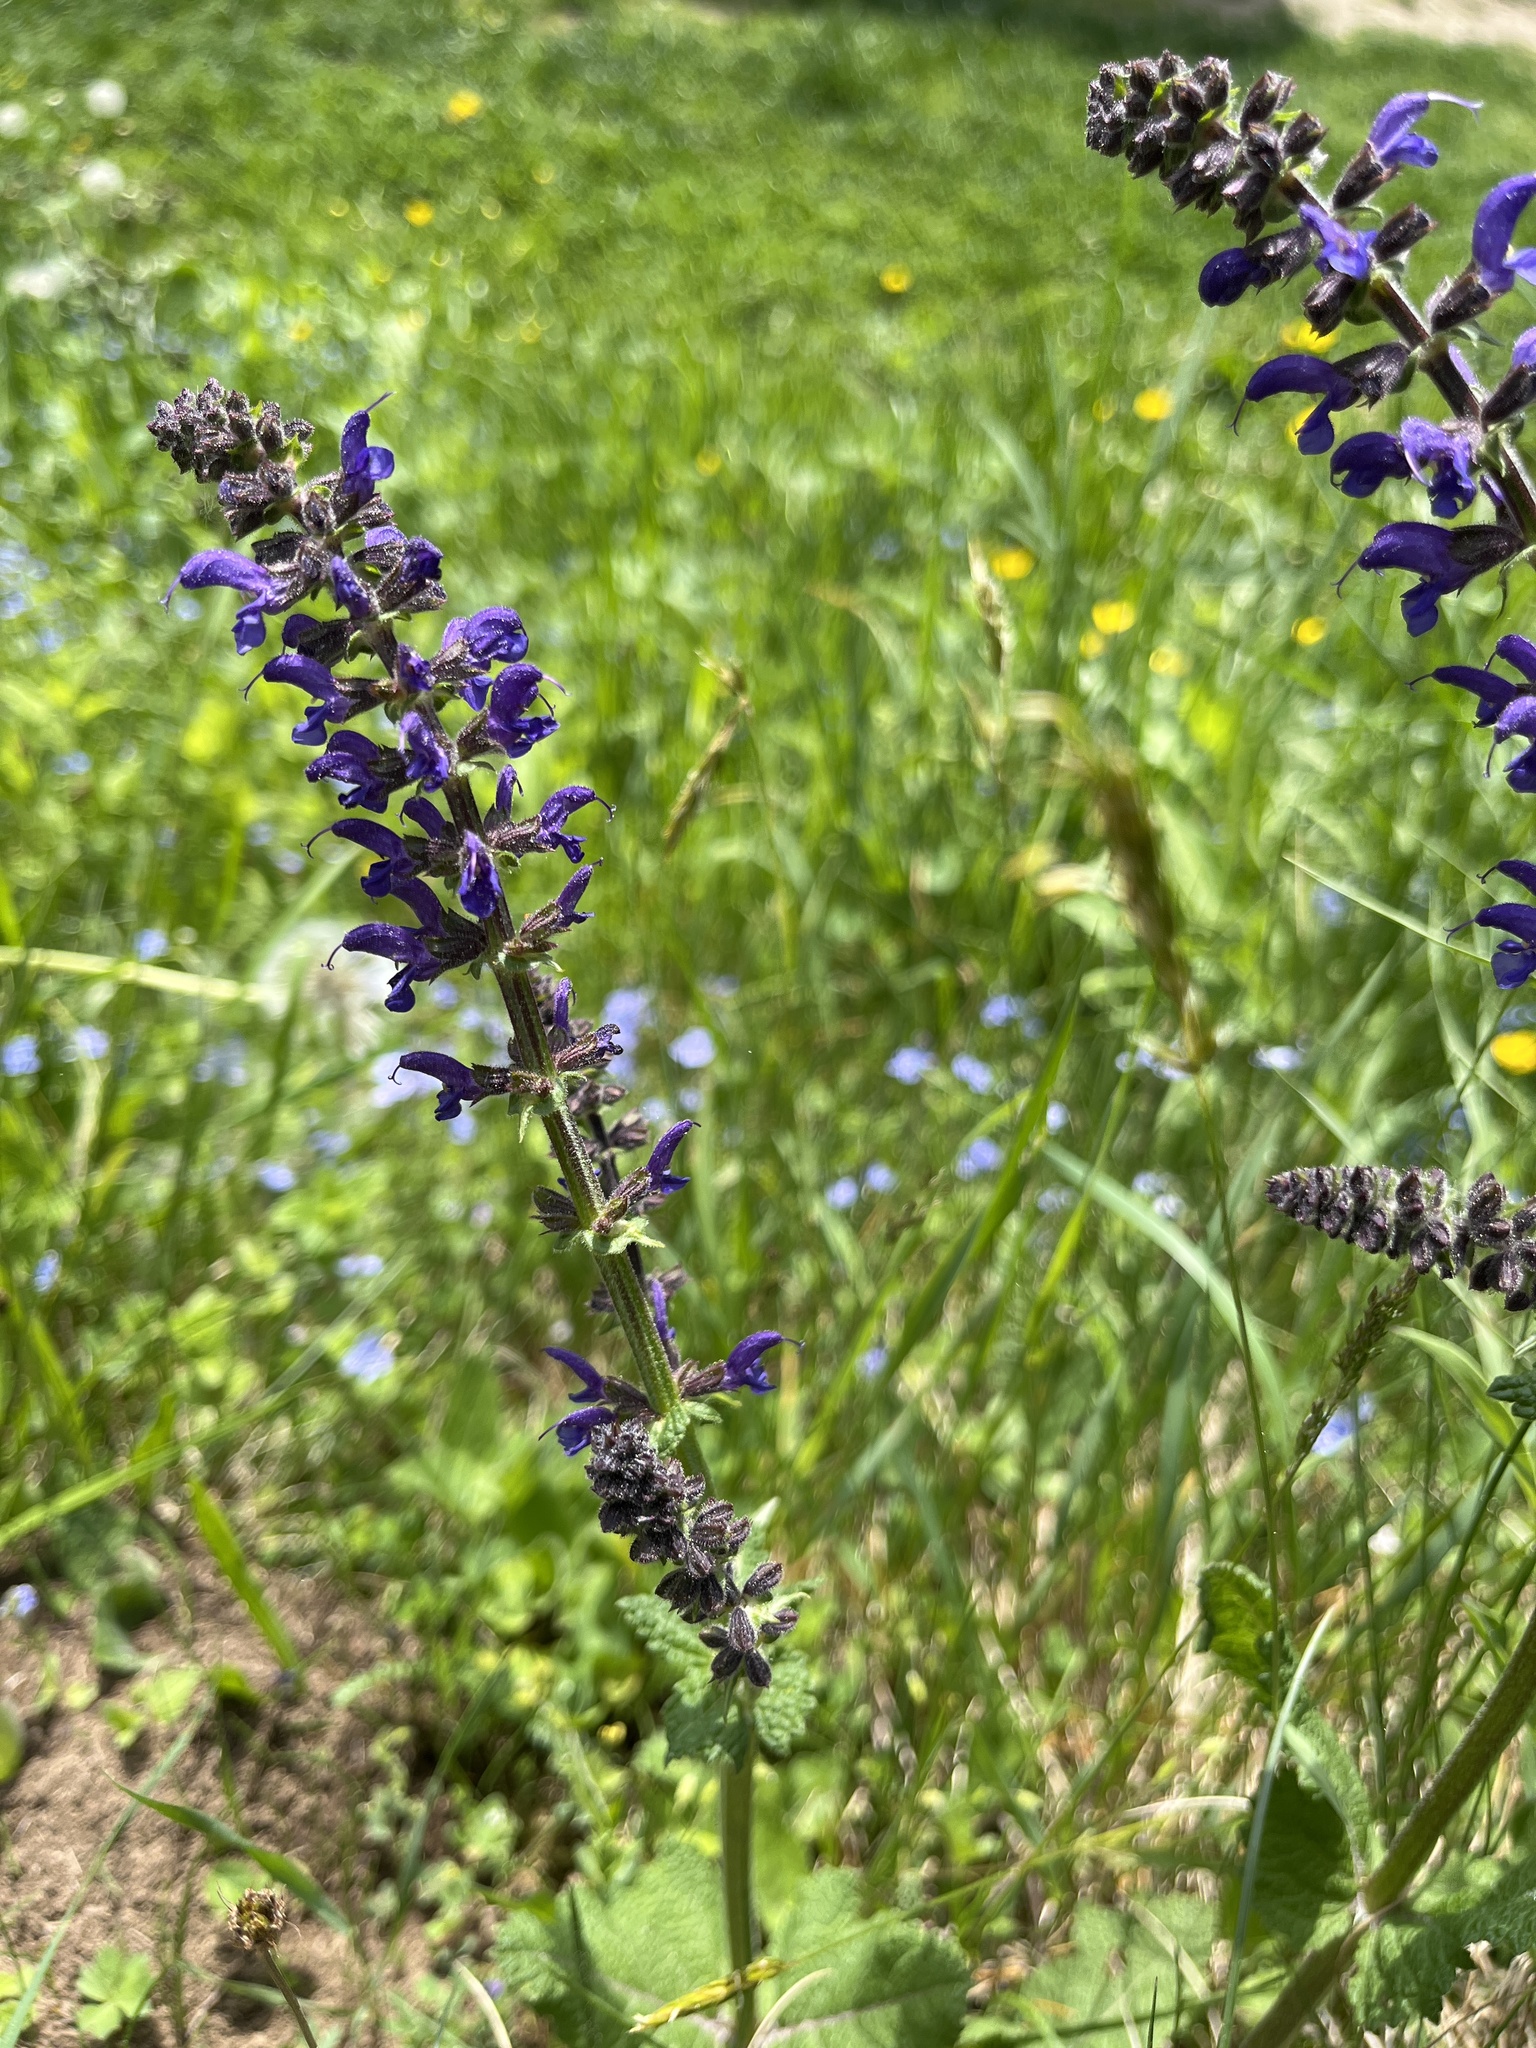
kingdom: Plantae
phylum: Tracheophyta
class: Magnoliopsida
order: Lamiales
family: Lamiaceae
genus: Salvia
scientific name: Salvia pratensis
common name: Meadow sage
